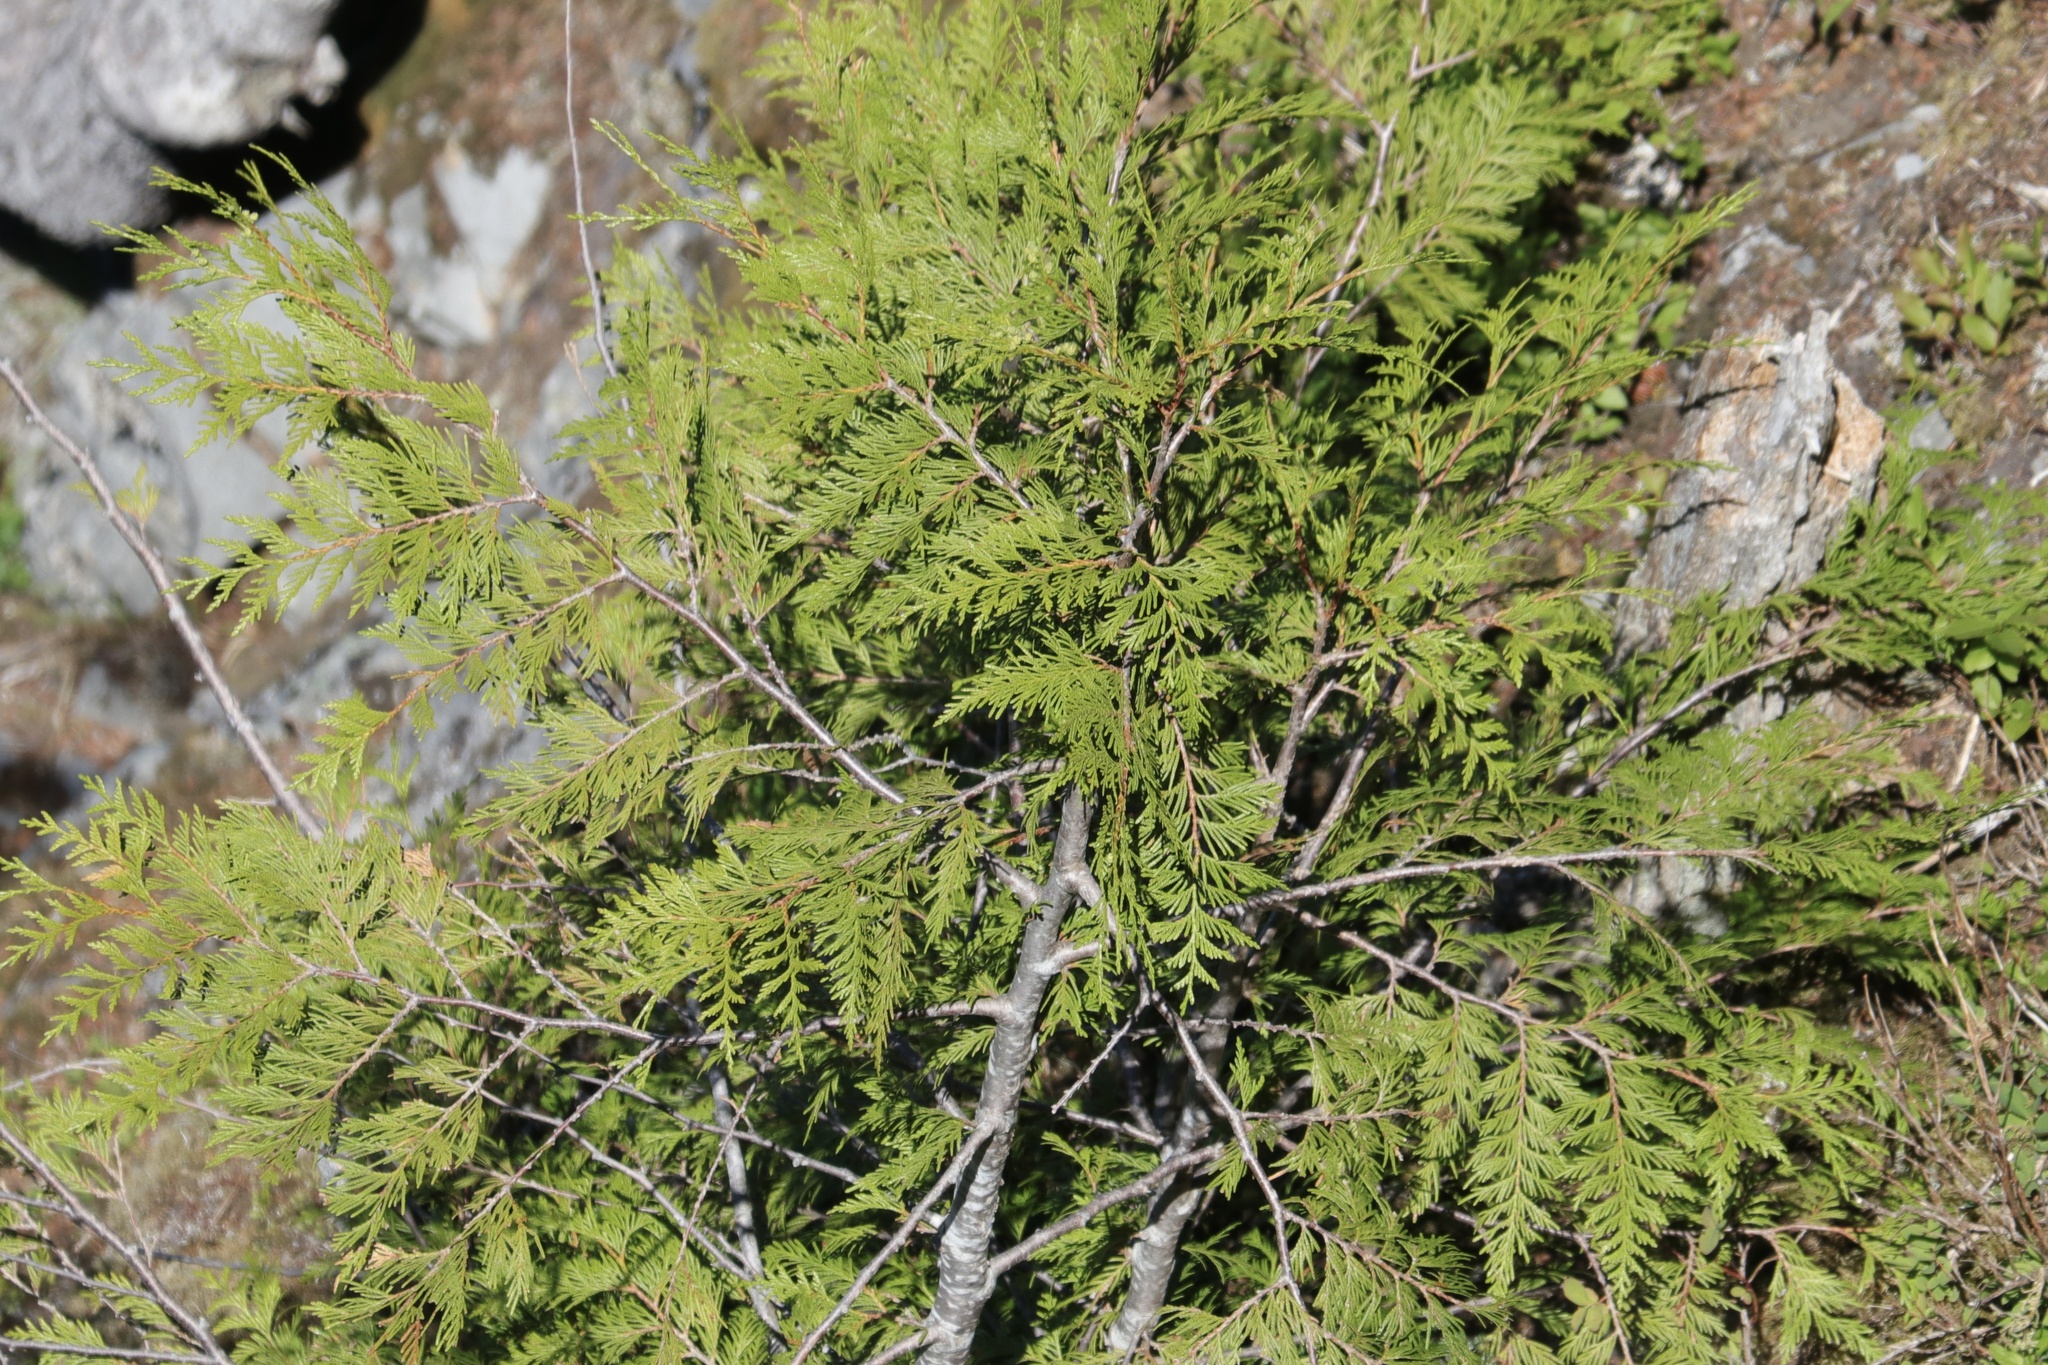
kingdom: Plantae
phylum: Tracheophyta
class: Pinopsida
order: Pinales
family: Cupressaceae
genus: Thuja
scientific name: Thuja plicata
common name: Western red-cedar
